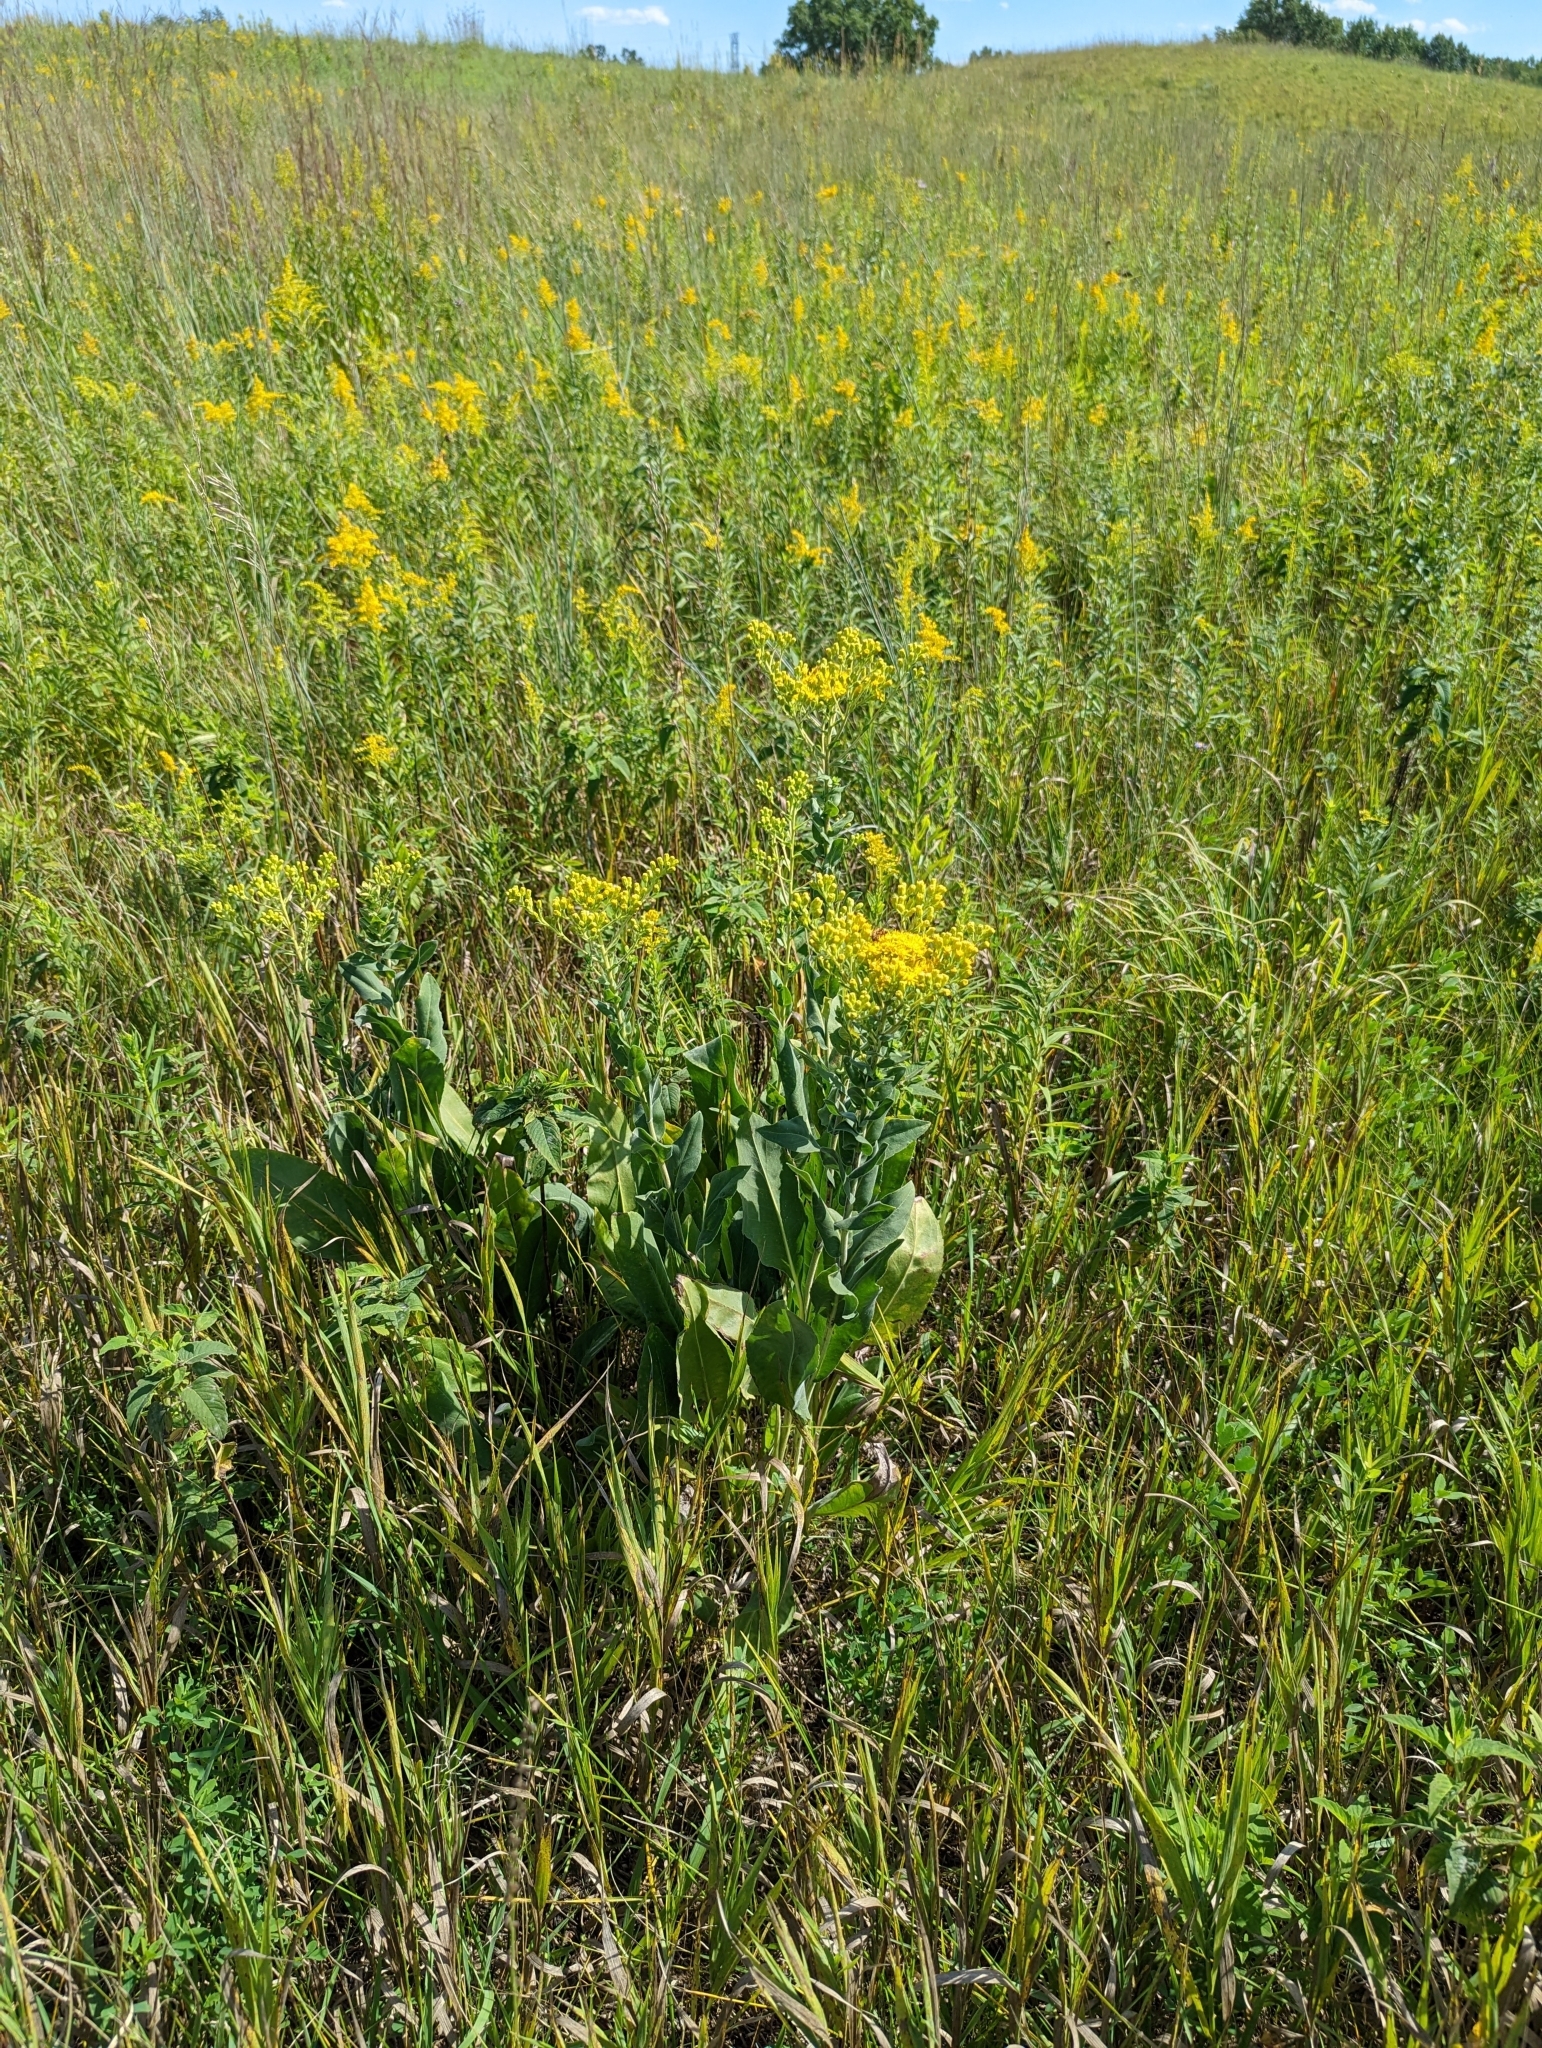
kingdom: Plantae
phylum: Tracheophyta
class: Magnoliopsida
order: Asterales
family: Asteraceae
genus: Solidago
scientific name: Solidago rigida
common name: Rigid goldenrod
